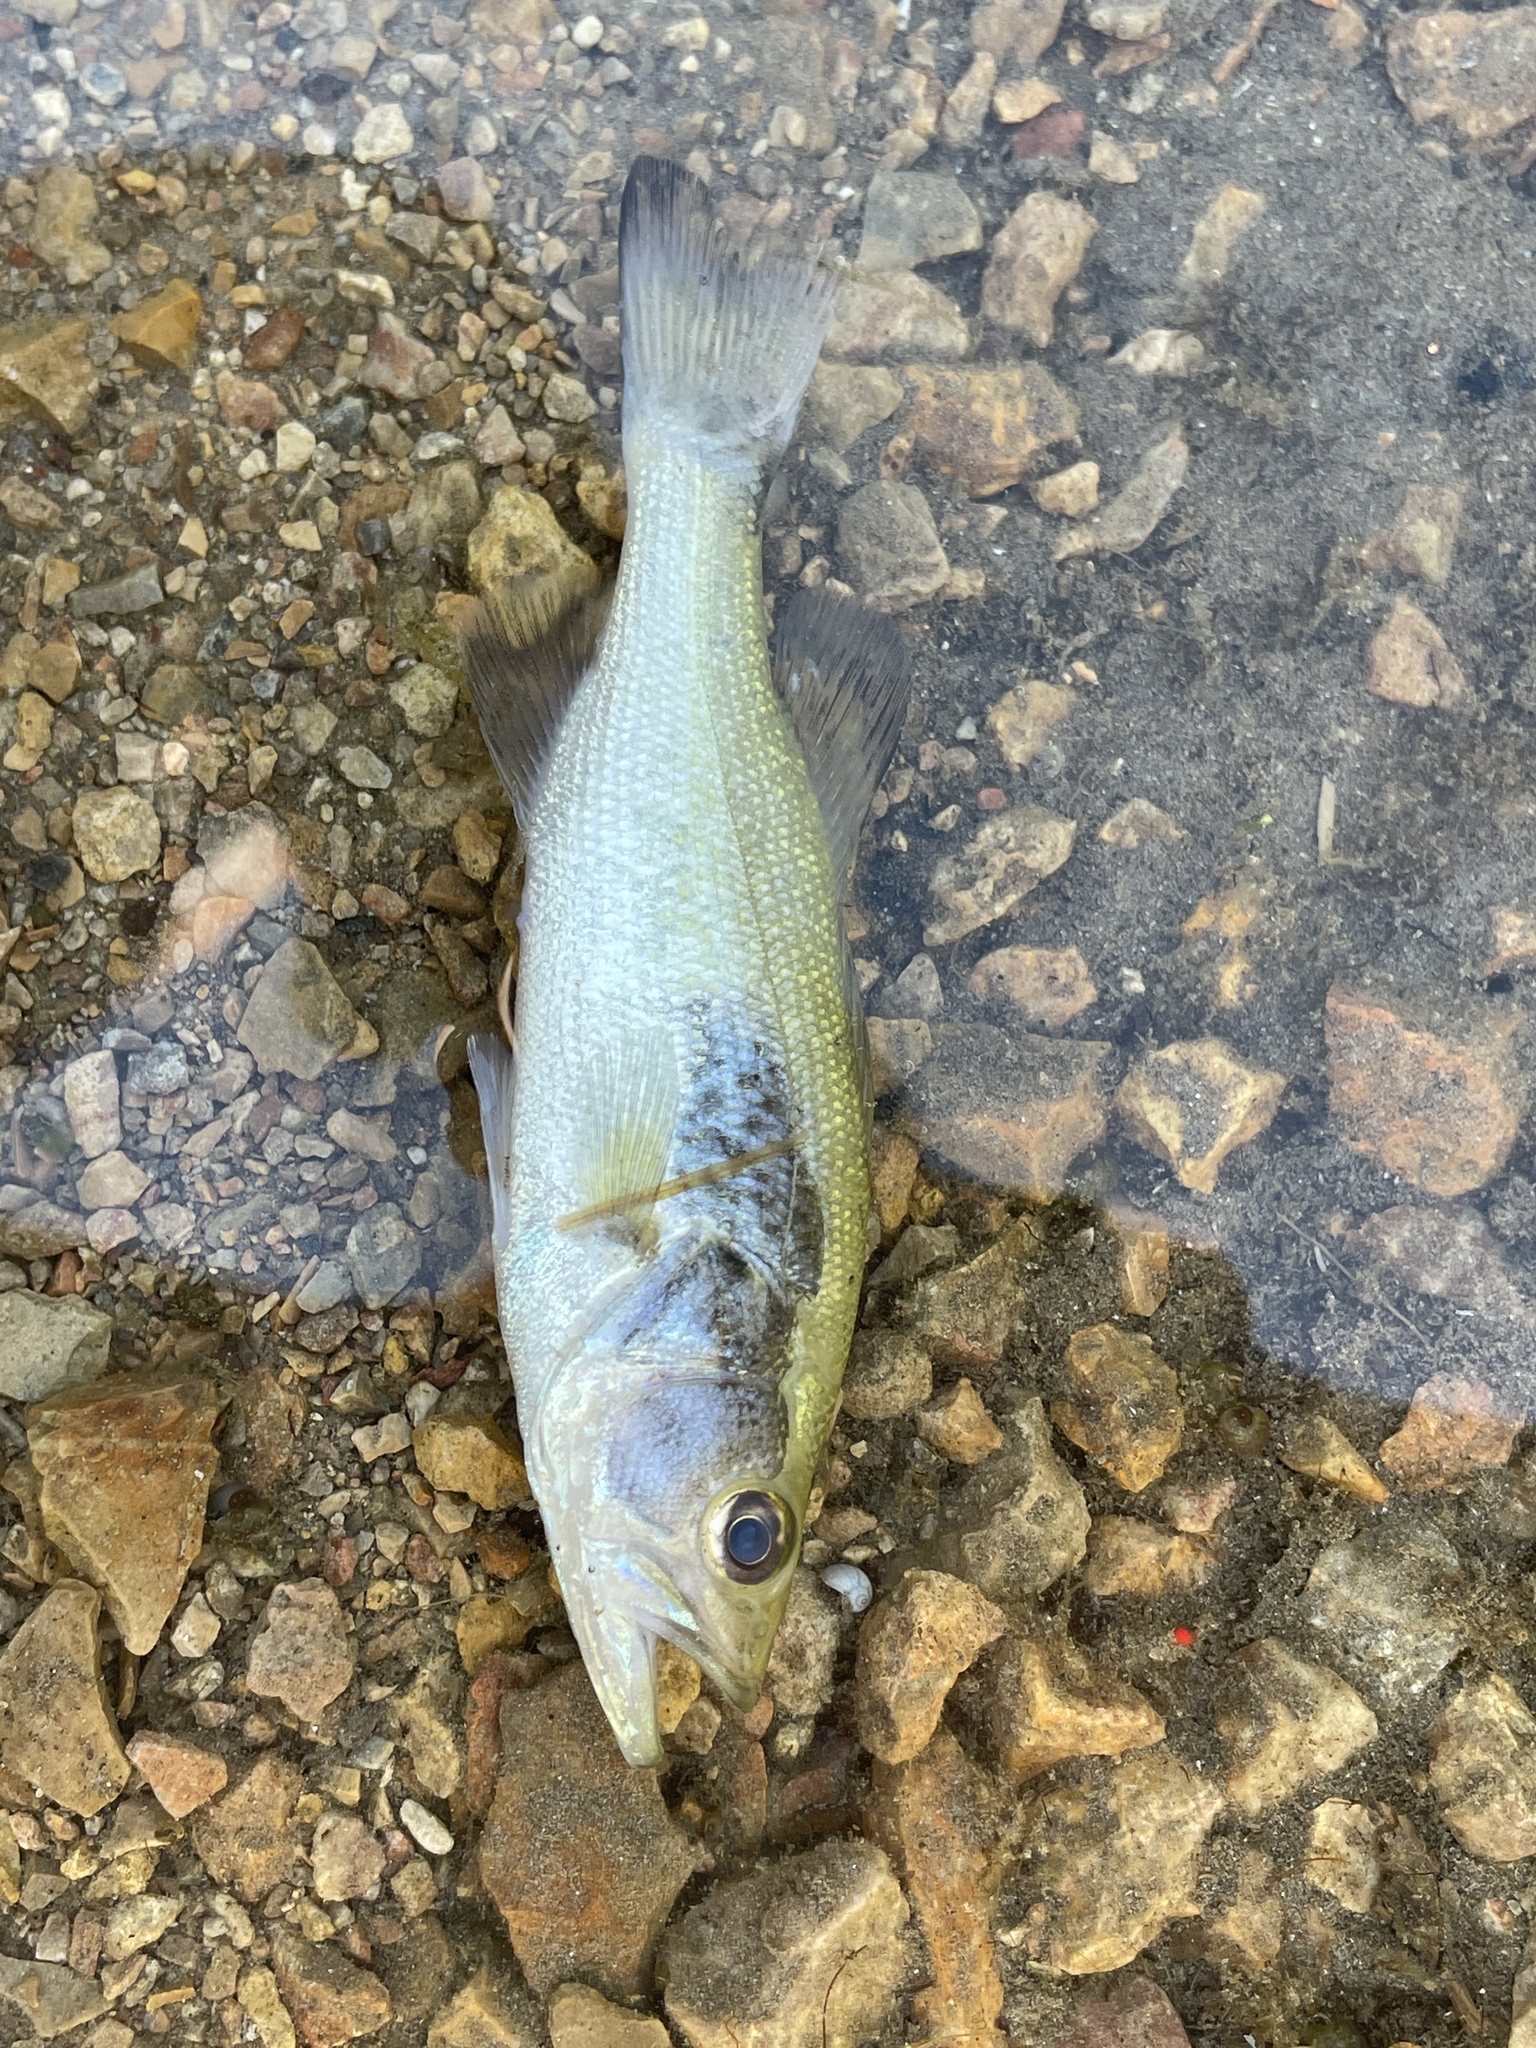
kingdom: Animalia
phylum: Chordata
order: Perciformes
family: Centrarchidae
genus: Micropterus
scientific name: Micropterus
